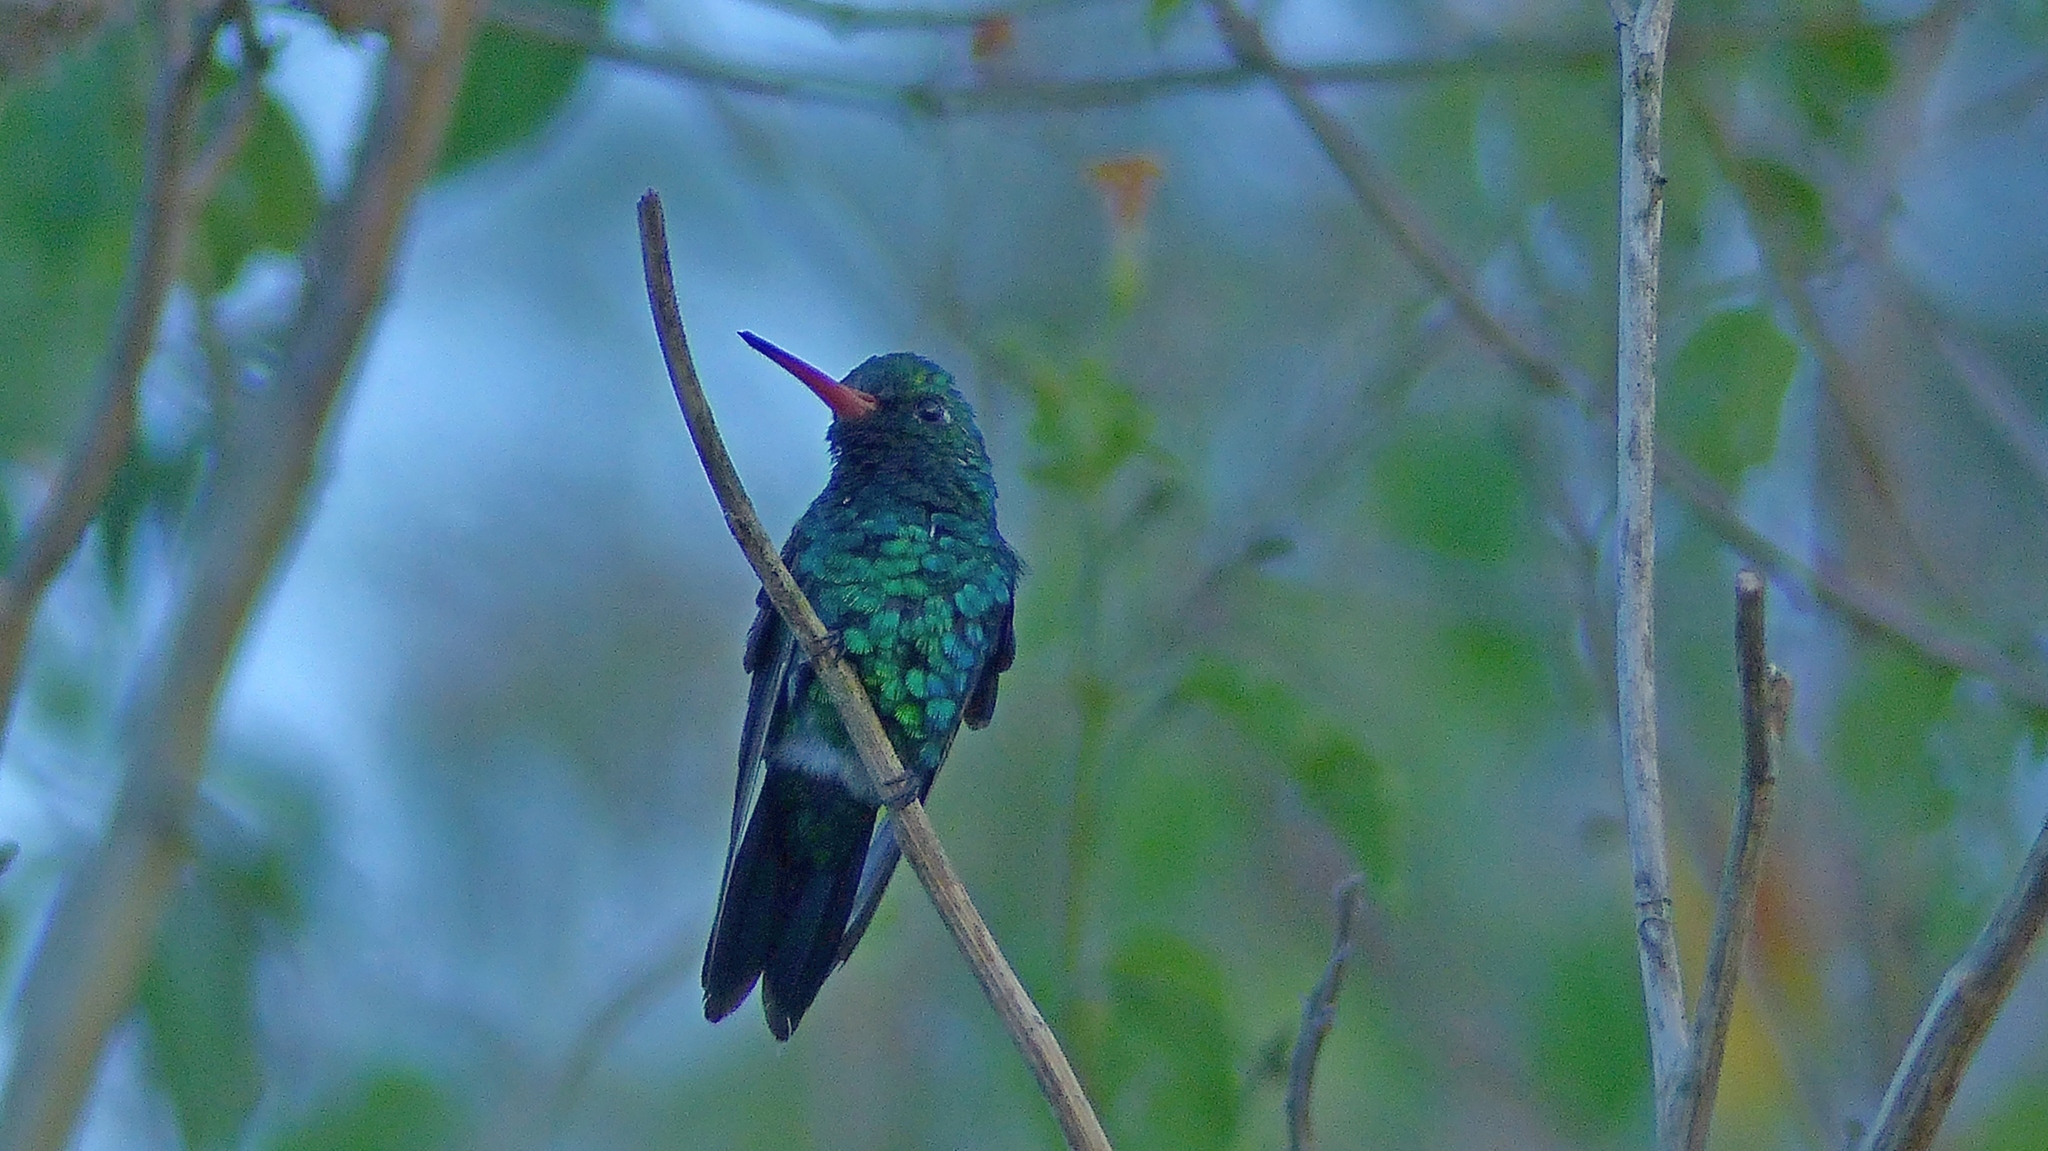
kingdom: Animalia
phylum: Chordata
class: Aves
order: Apodiformes
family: Trochilidae
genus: Chlorostilbon
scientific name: Chlorostilbon lucidus
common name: Glittering-bellied emerald
